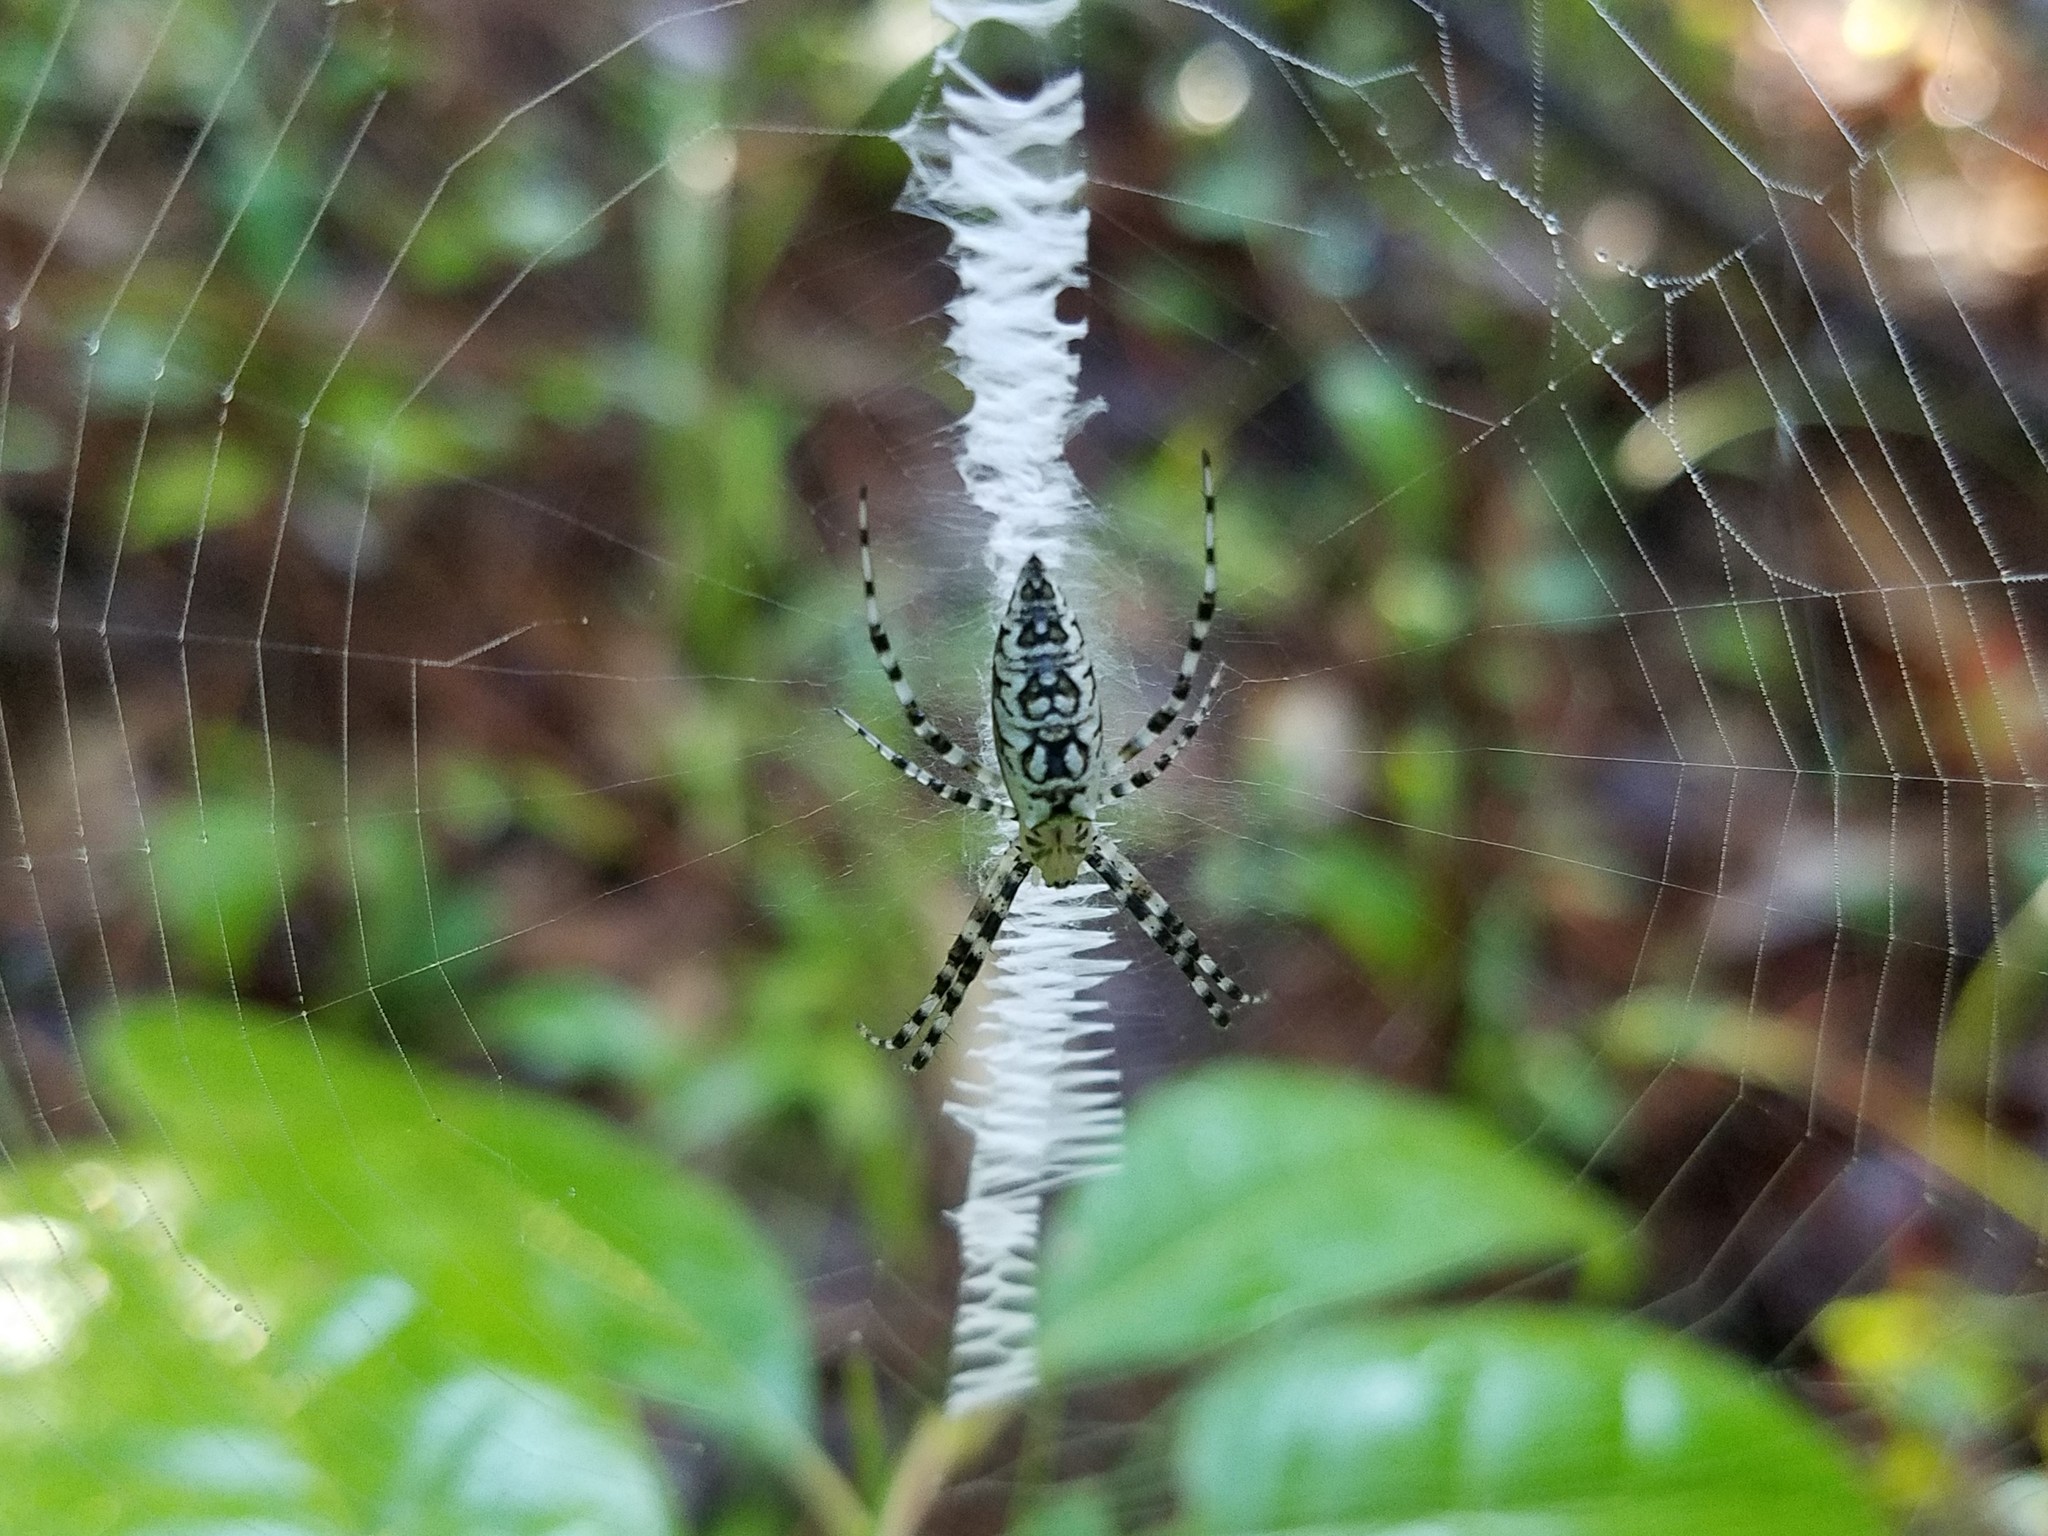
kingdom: Animalia
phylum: Arthropoda
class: Arachnida
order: Araneae
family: Araneidae
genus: Argiope
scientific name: Argiope aurantia
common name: Orb weavers
